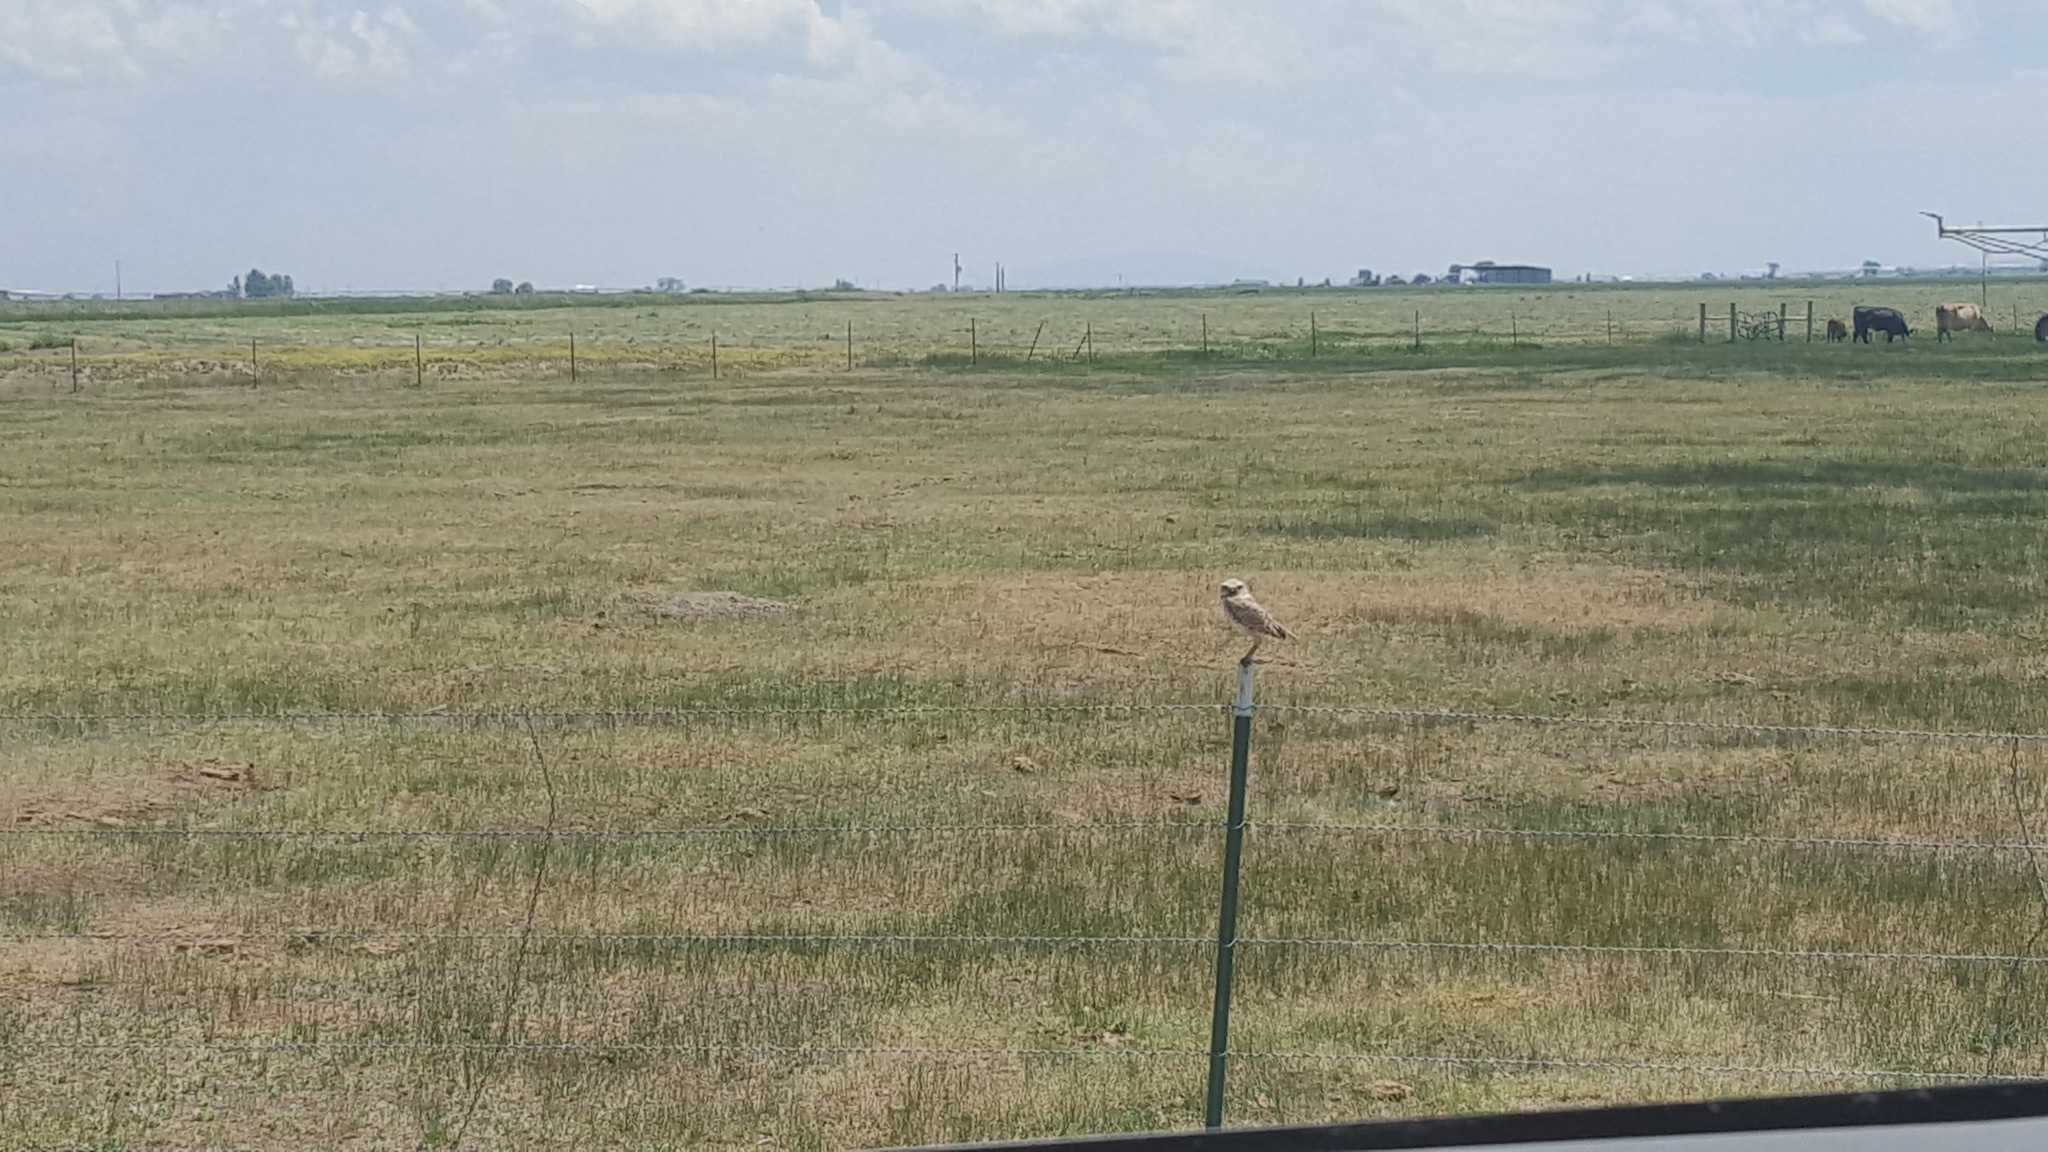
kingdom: Animalia
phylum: Chordata
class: Aves
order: Strigiformes
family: Strigidae
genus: Athene
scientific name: Athene cunicularia
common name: Burrowing owl
